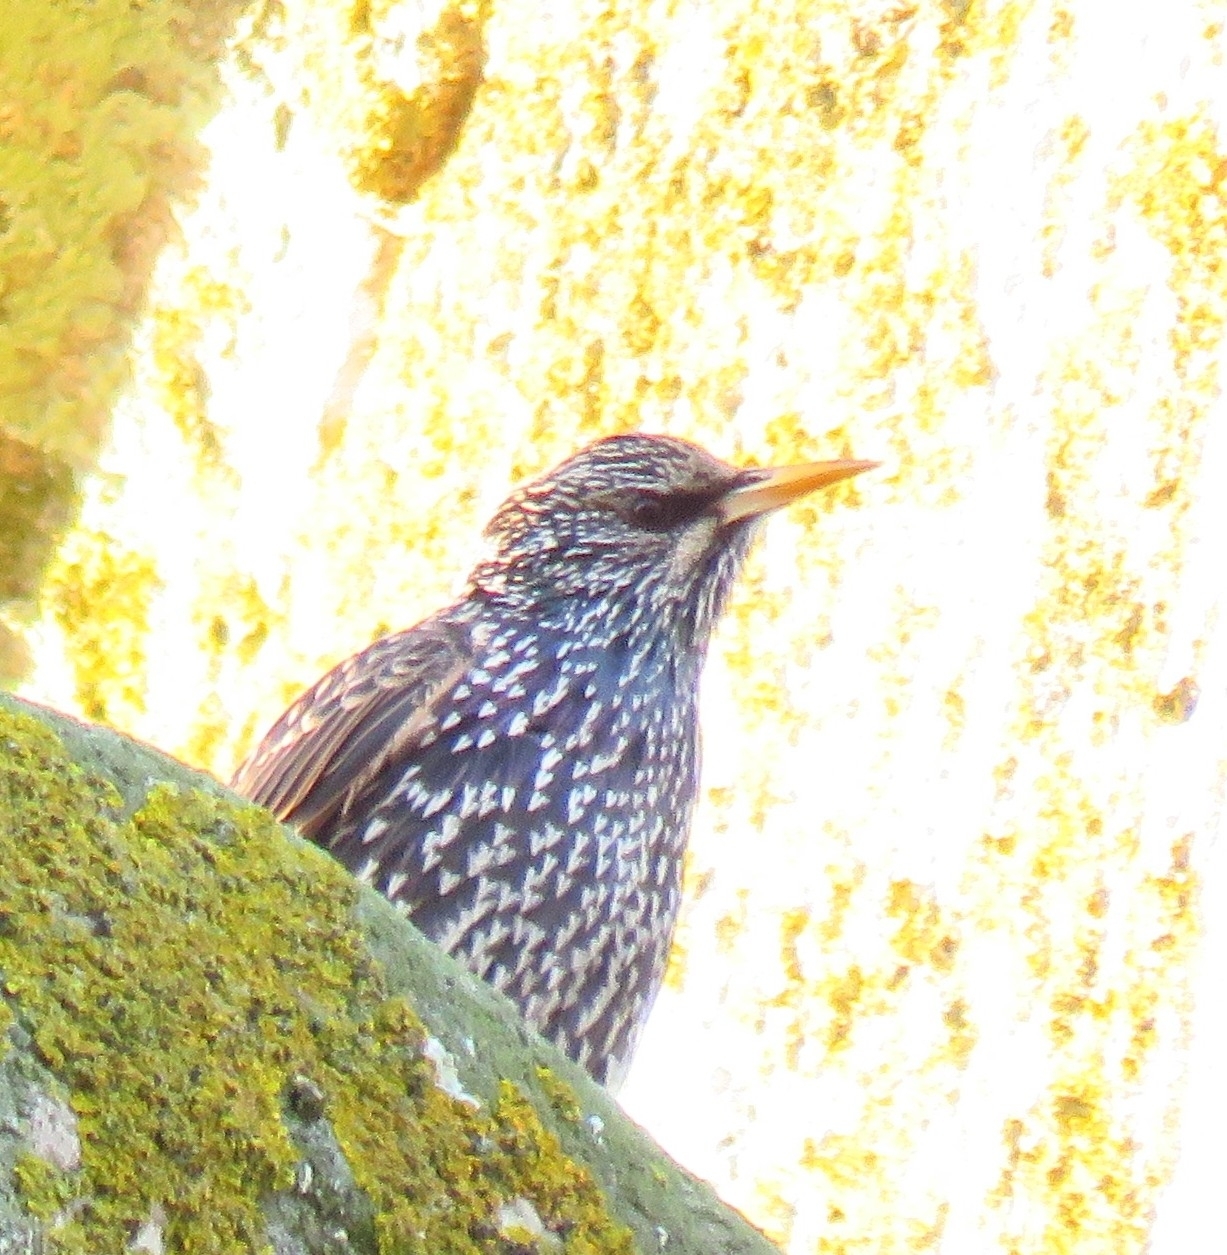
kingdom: Animalia
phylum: Chordata
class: Aves
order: Passeriformes
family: Sturnidae
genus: Sturnus
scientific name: Sturnus vulgaris
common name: Common starling
